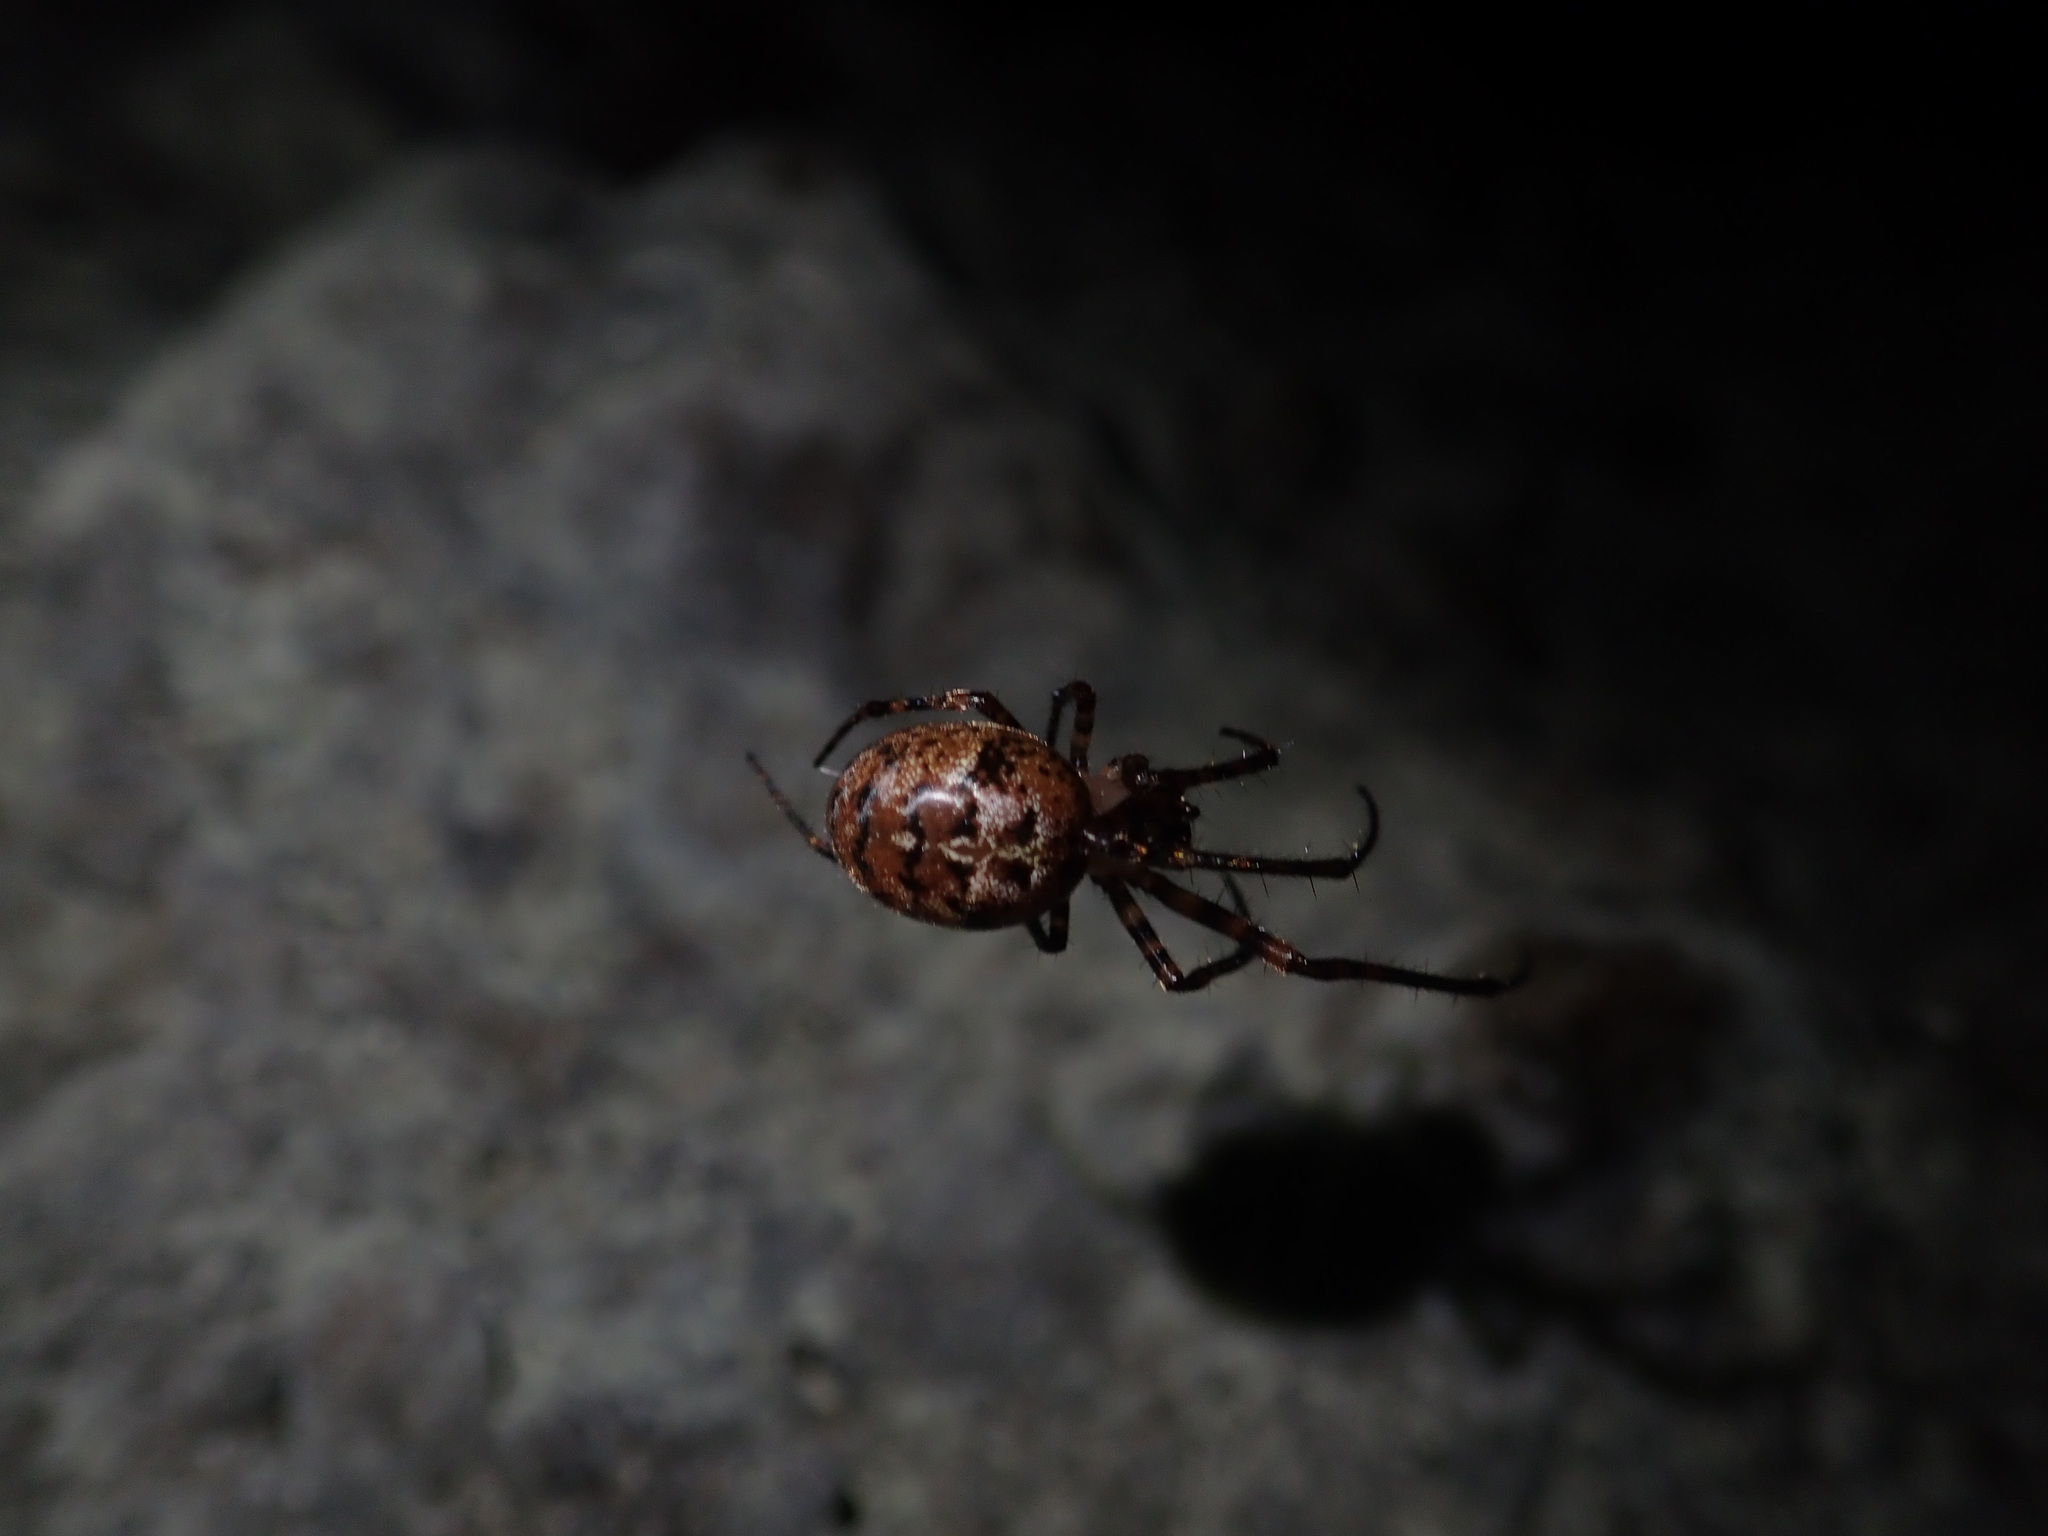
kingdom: Animalia
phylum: Arthropoda
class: Arachnida
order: Araneae
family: Tetragnathidae
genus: Tawhai
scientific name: Tawhai arborea
